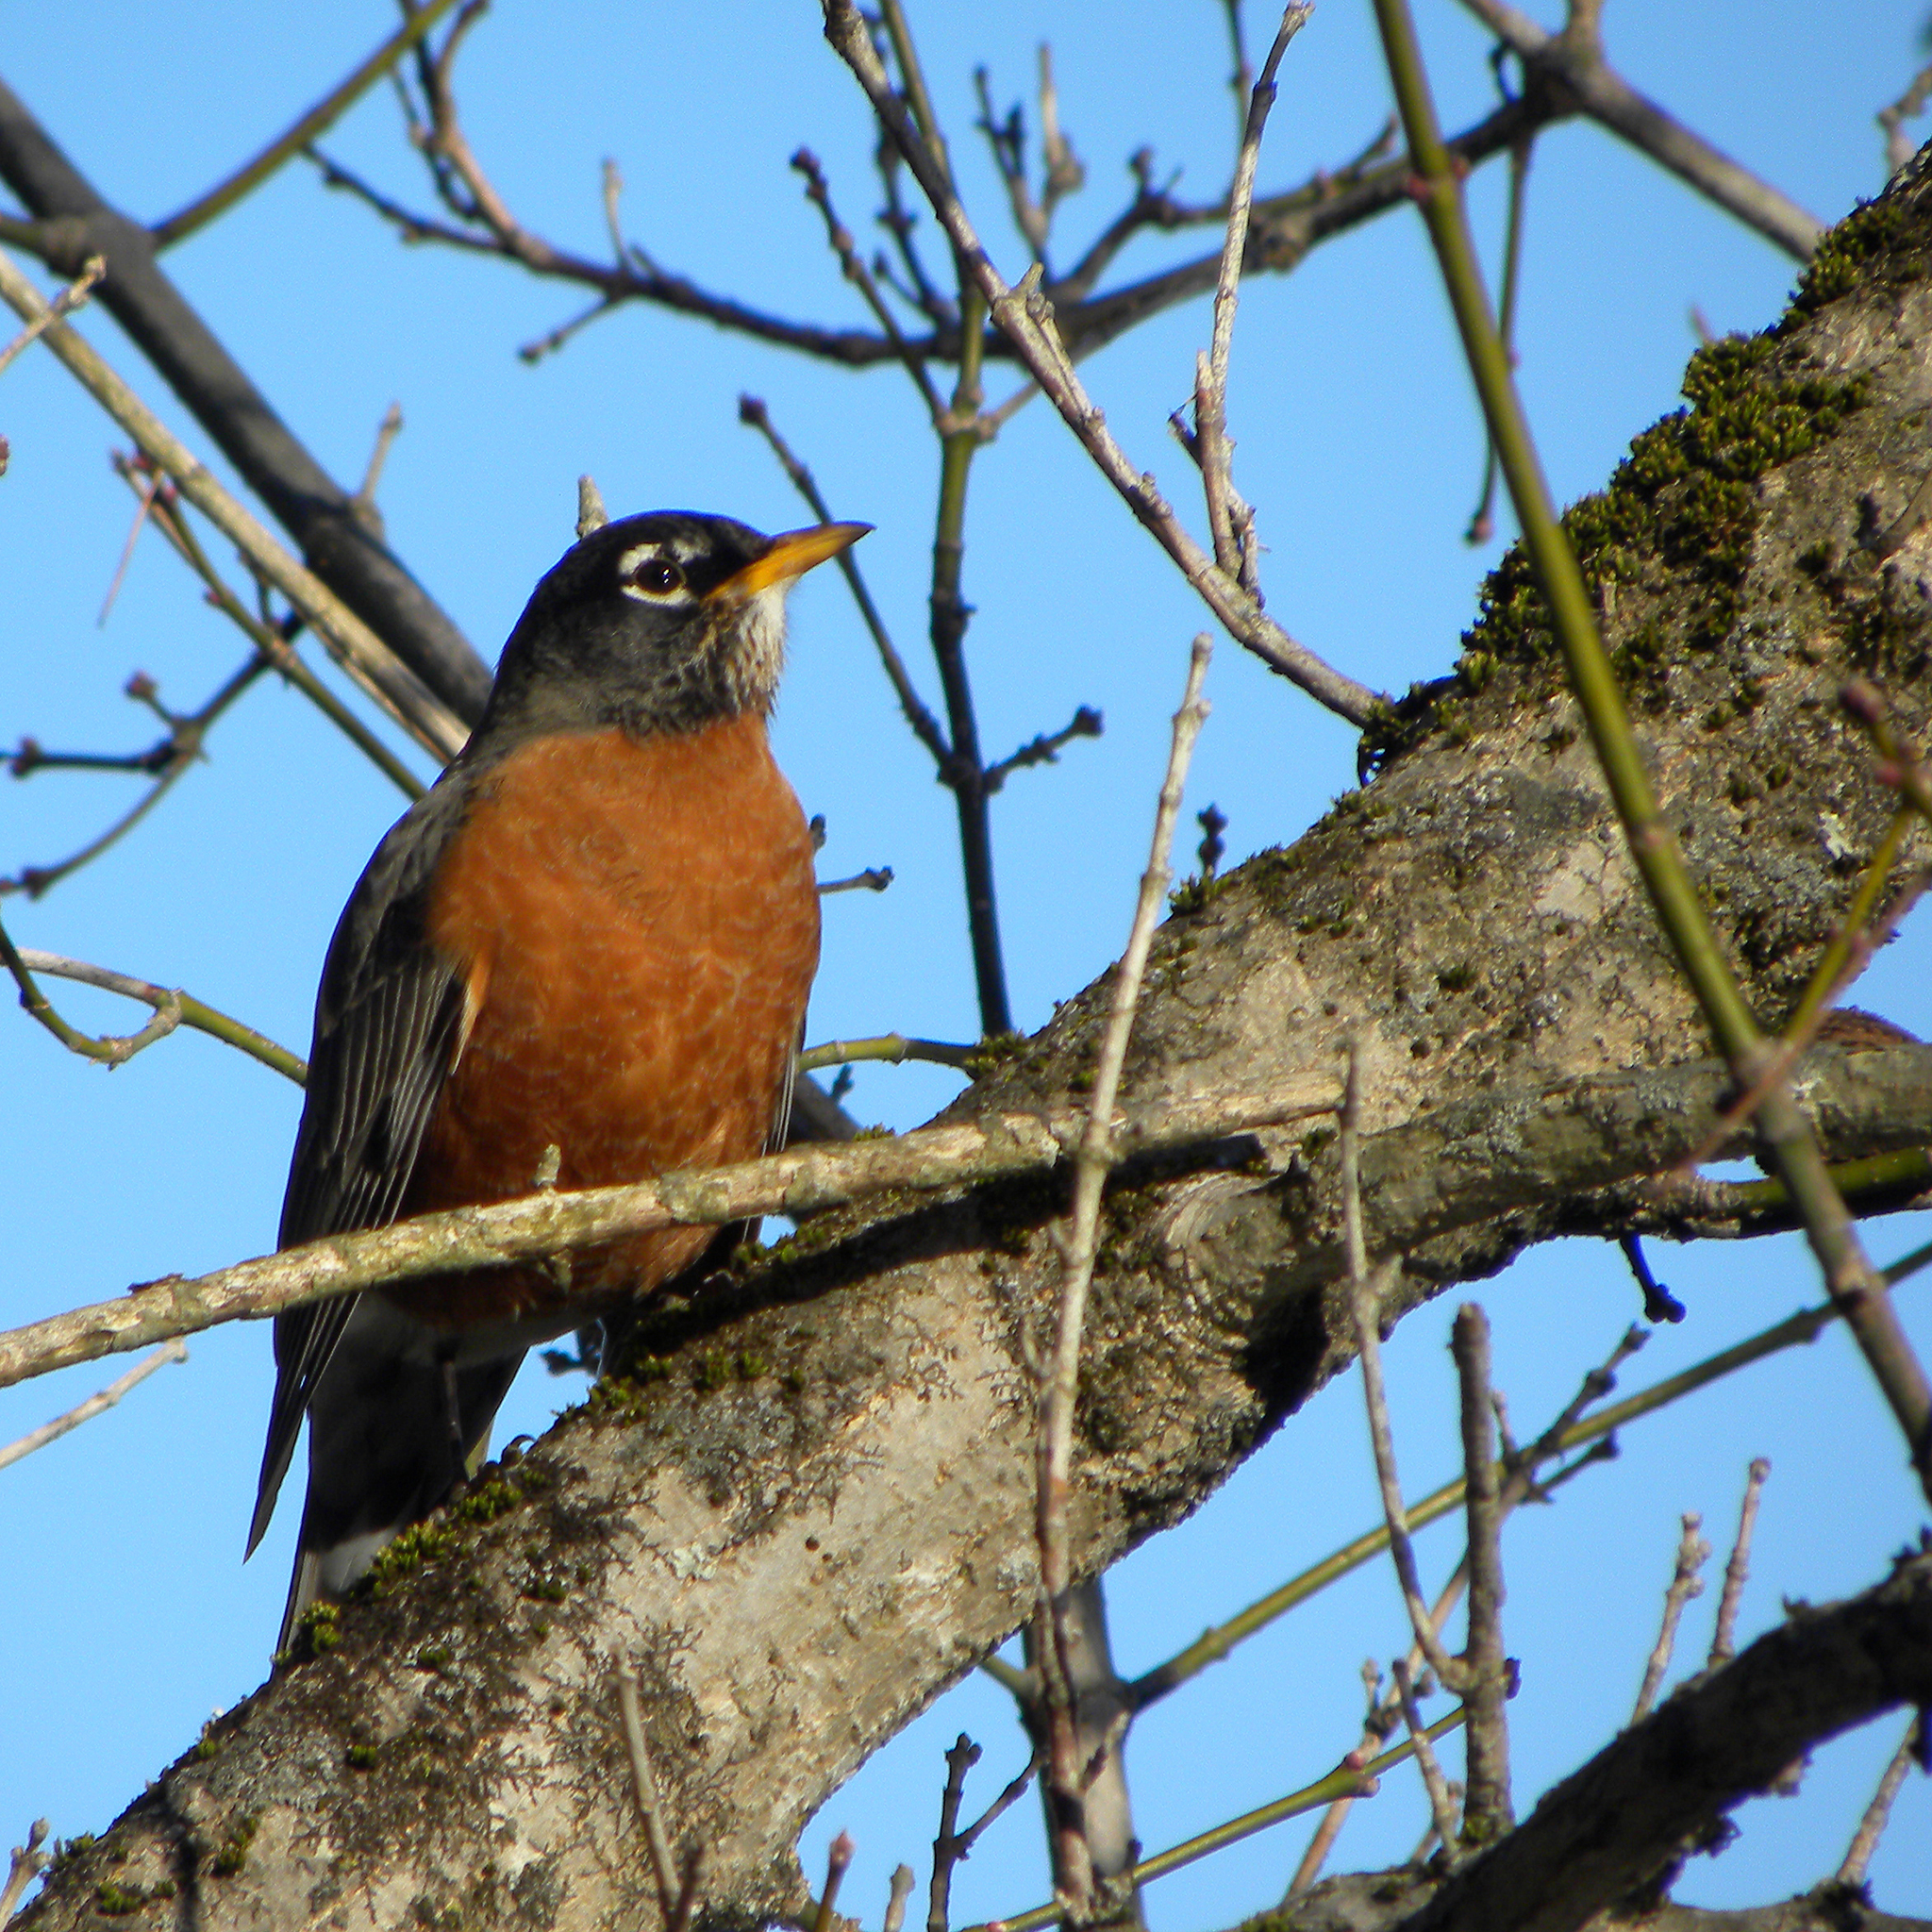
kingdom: Animalia
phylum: Chordata
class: Aves
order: Passeriformes
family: Turdidae
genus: Turdus
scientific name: Turdus migratorius
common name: American robin
